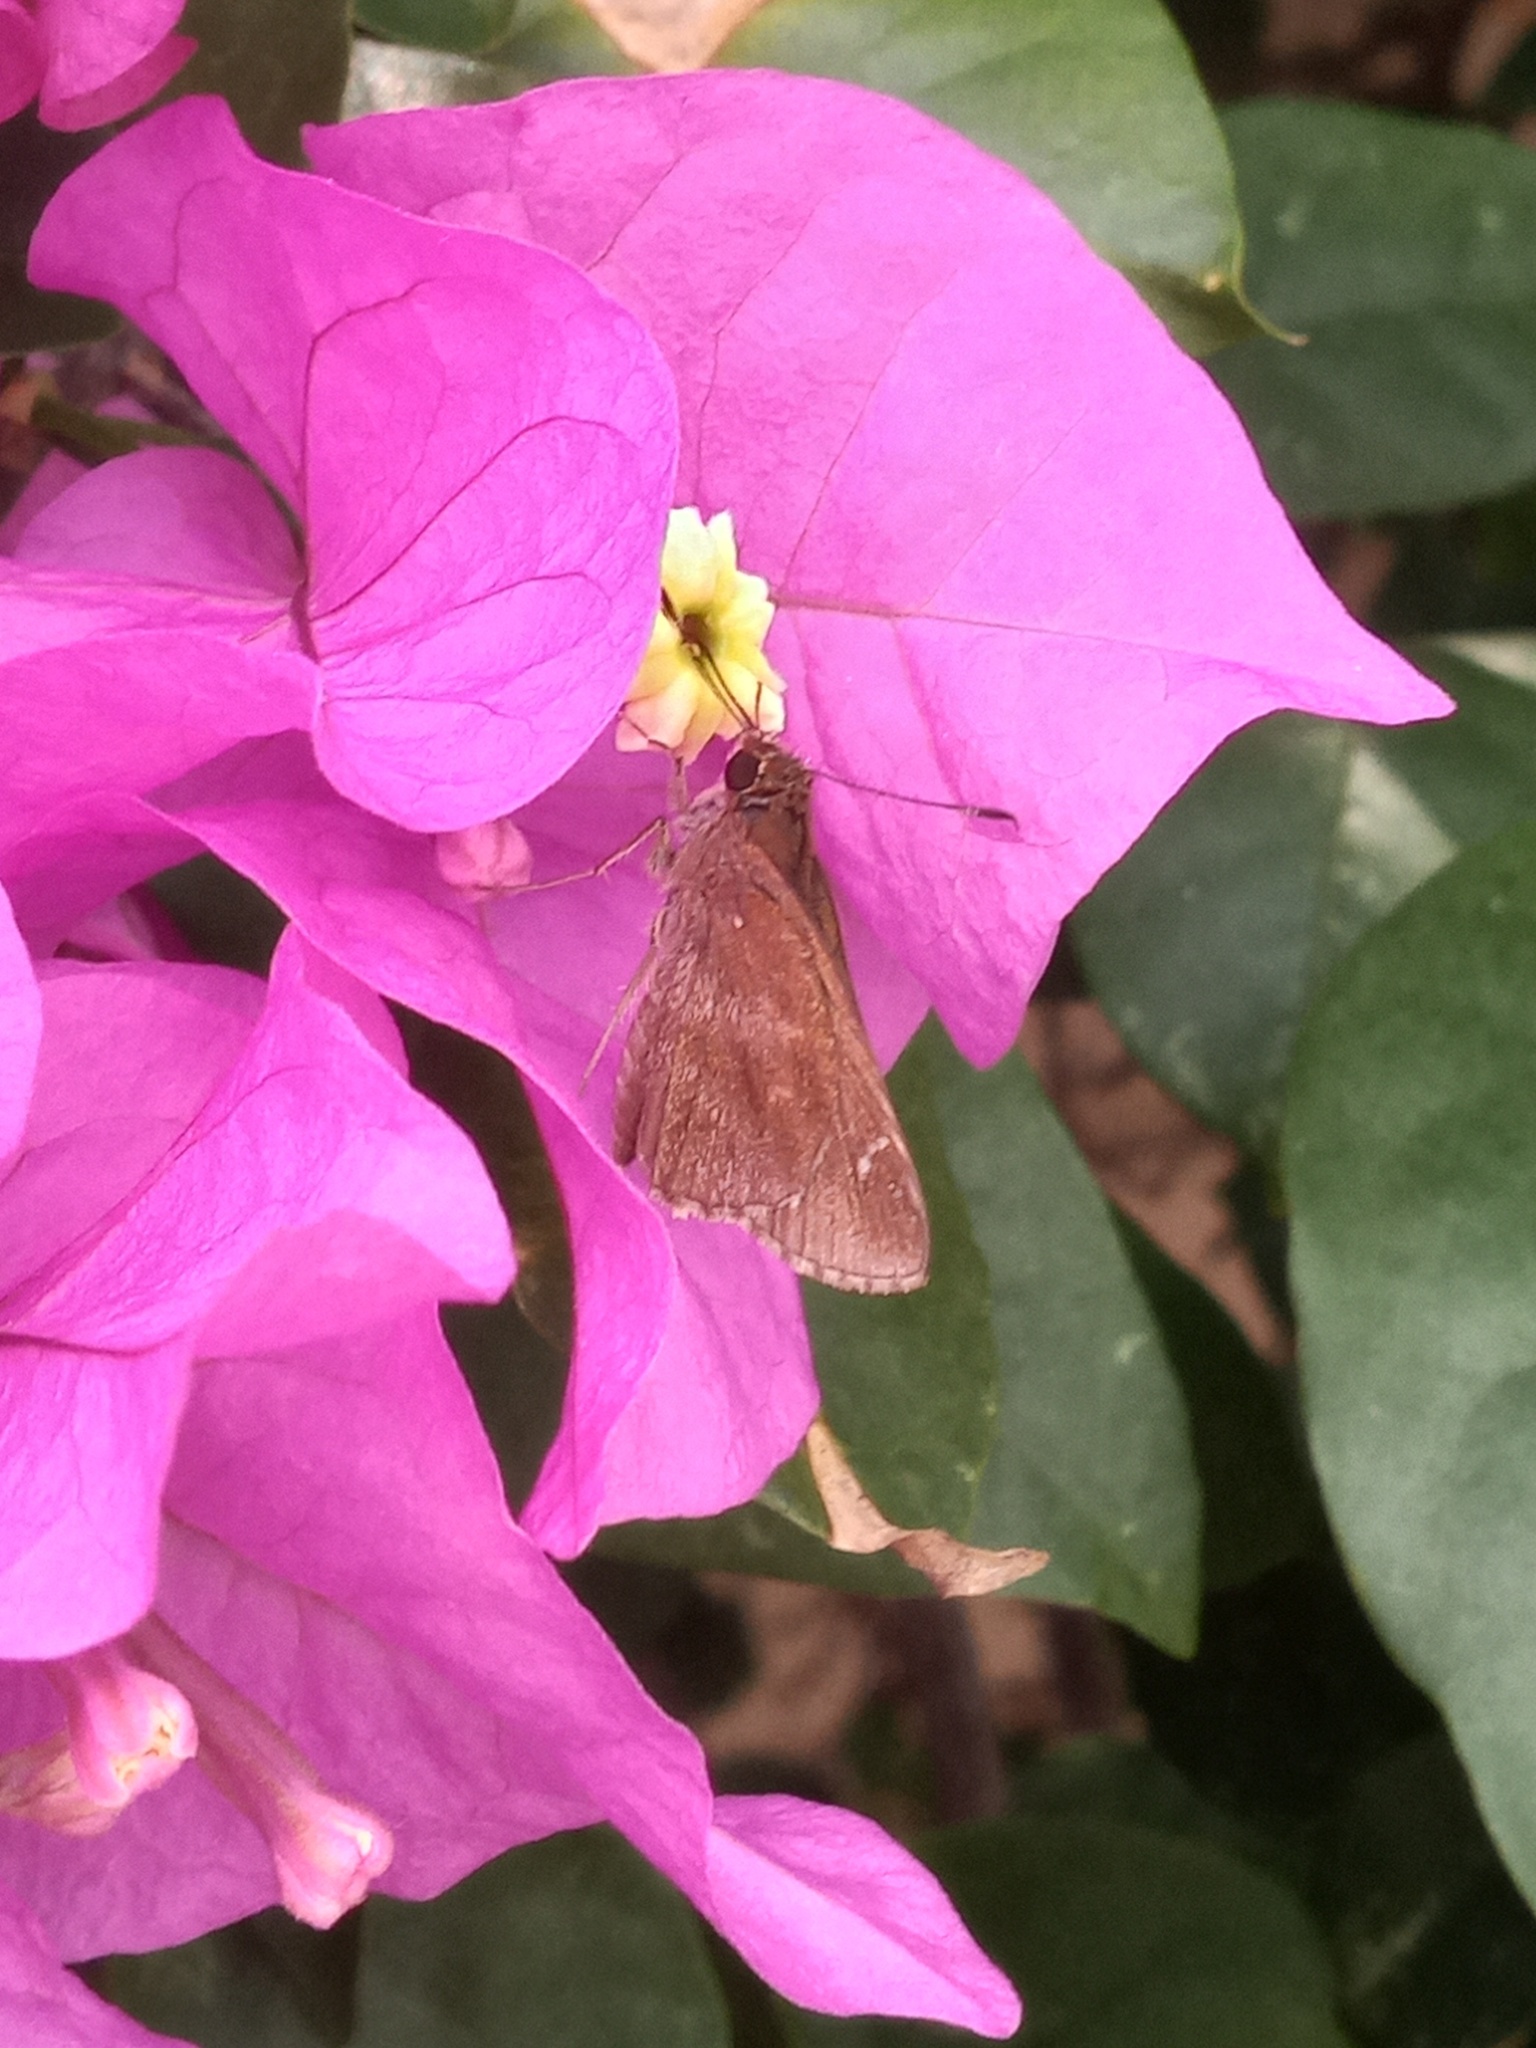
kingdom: Animalia
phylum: Arthropoda
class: Insecta
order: Lepidoptera
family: Hesperiidae
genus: Lerema
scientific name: Lerema accius
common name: Clouded skipper
